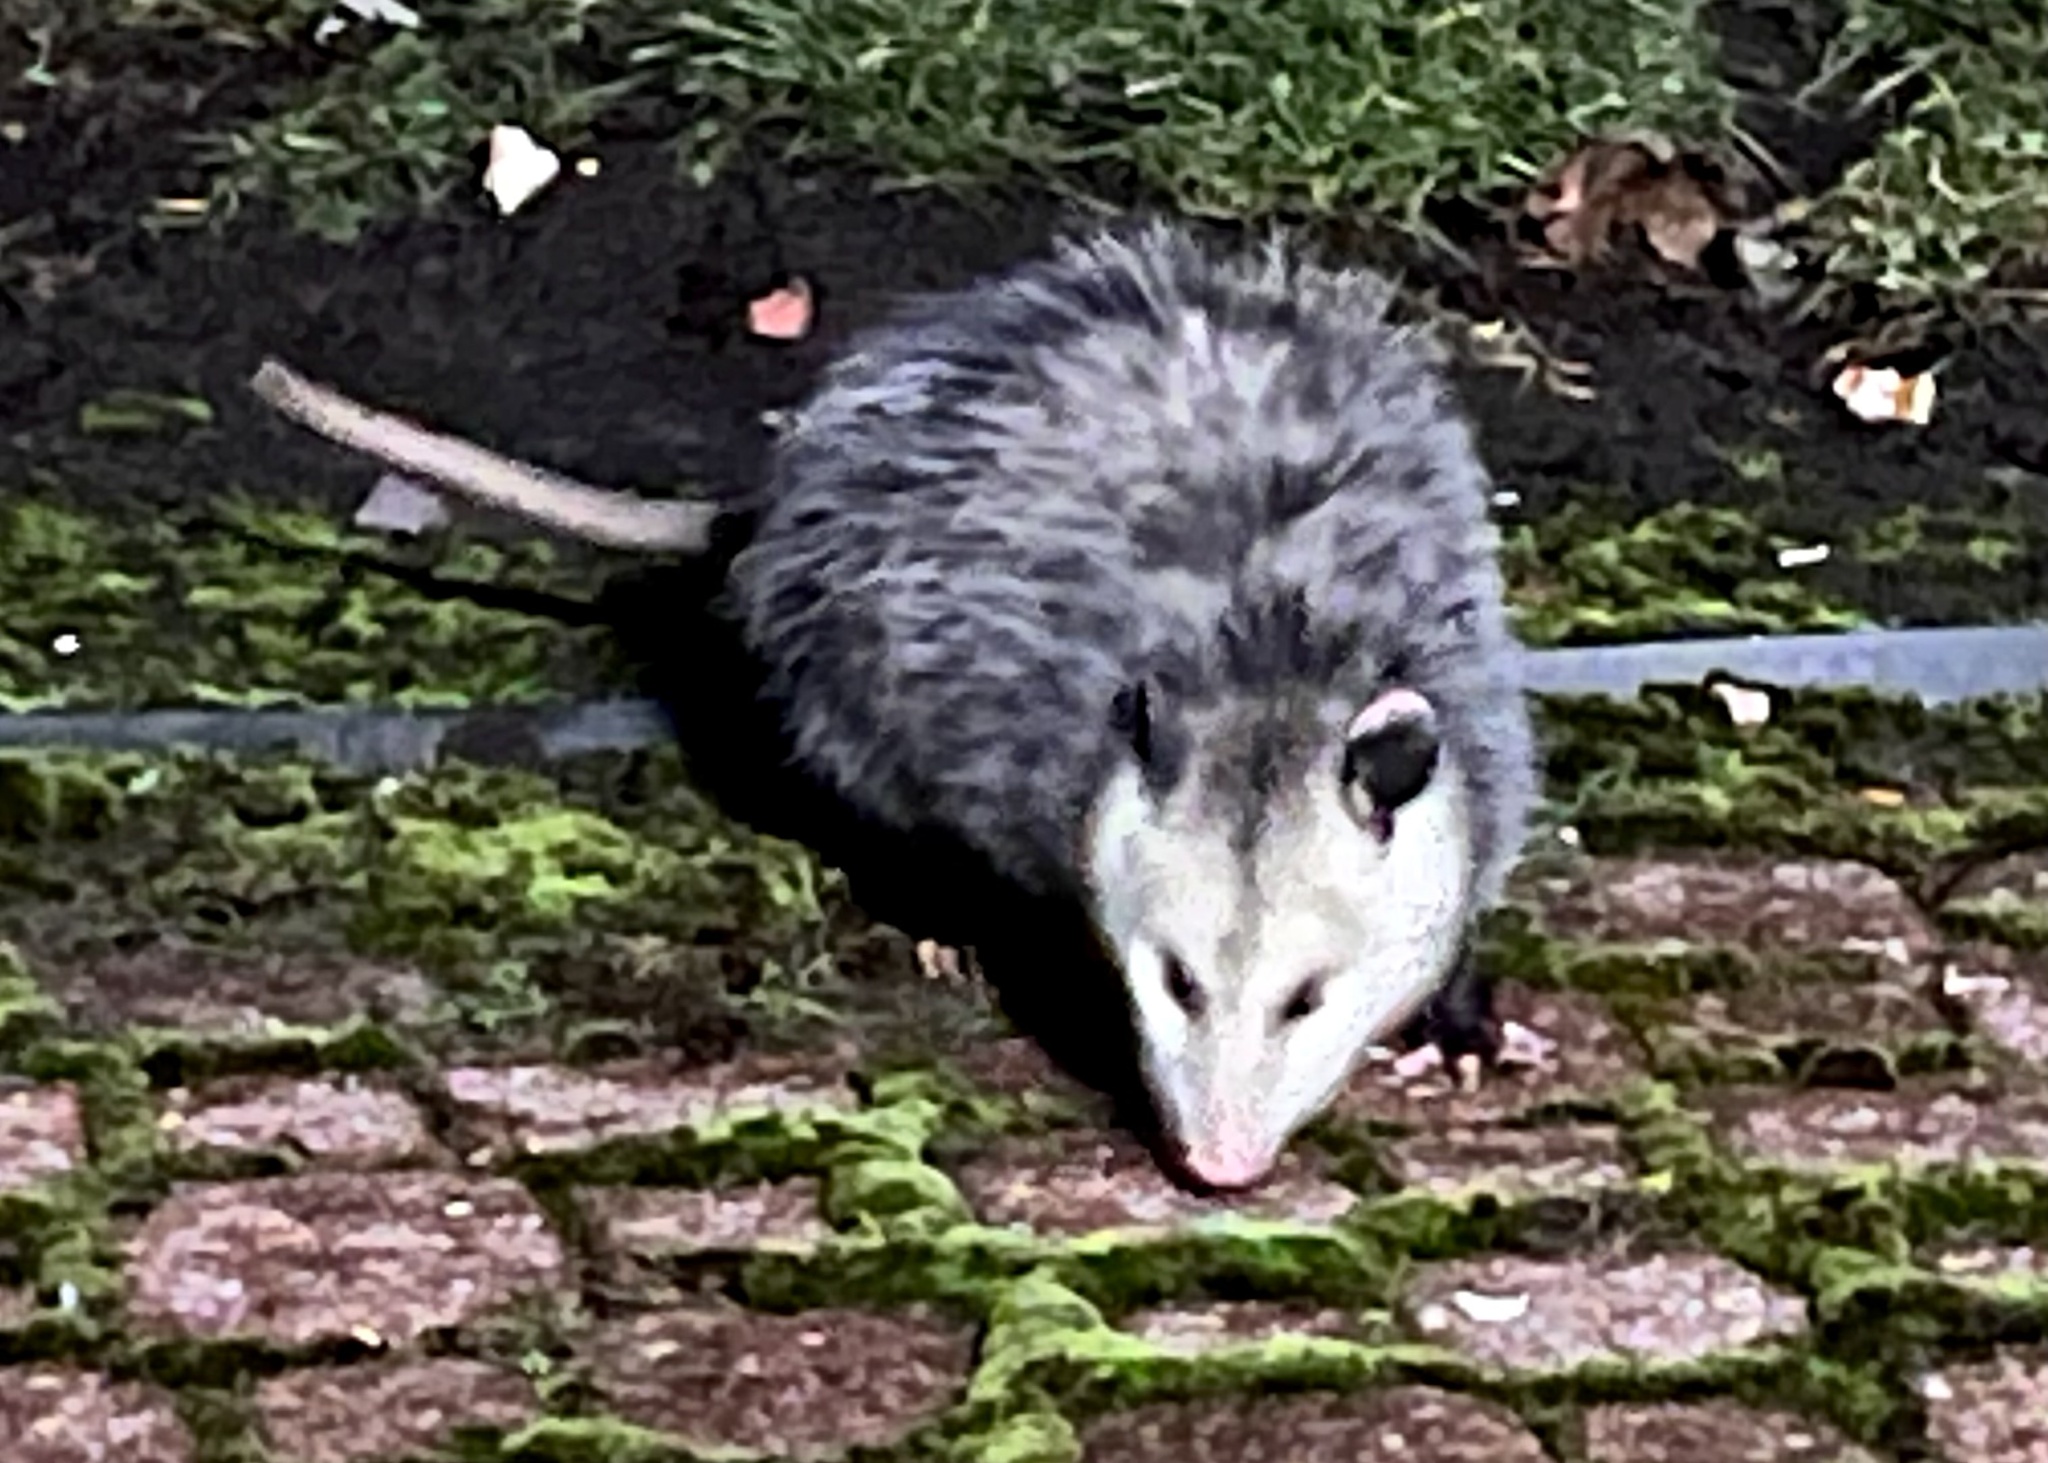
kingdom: Animalia
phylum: Chordata
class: Mammalia
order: Didelphimorphia
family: Didelphidae
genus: Didelphis
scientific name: Didelphis virginiana
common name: Virginia opossum
